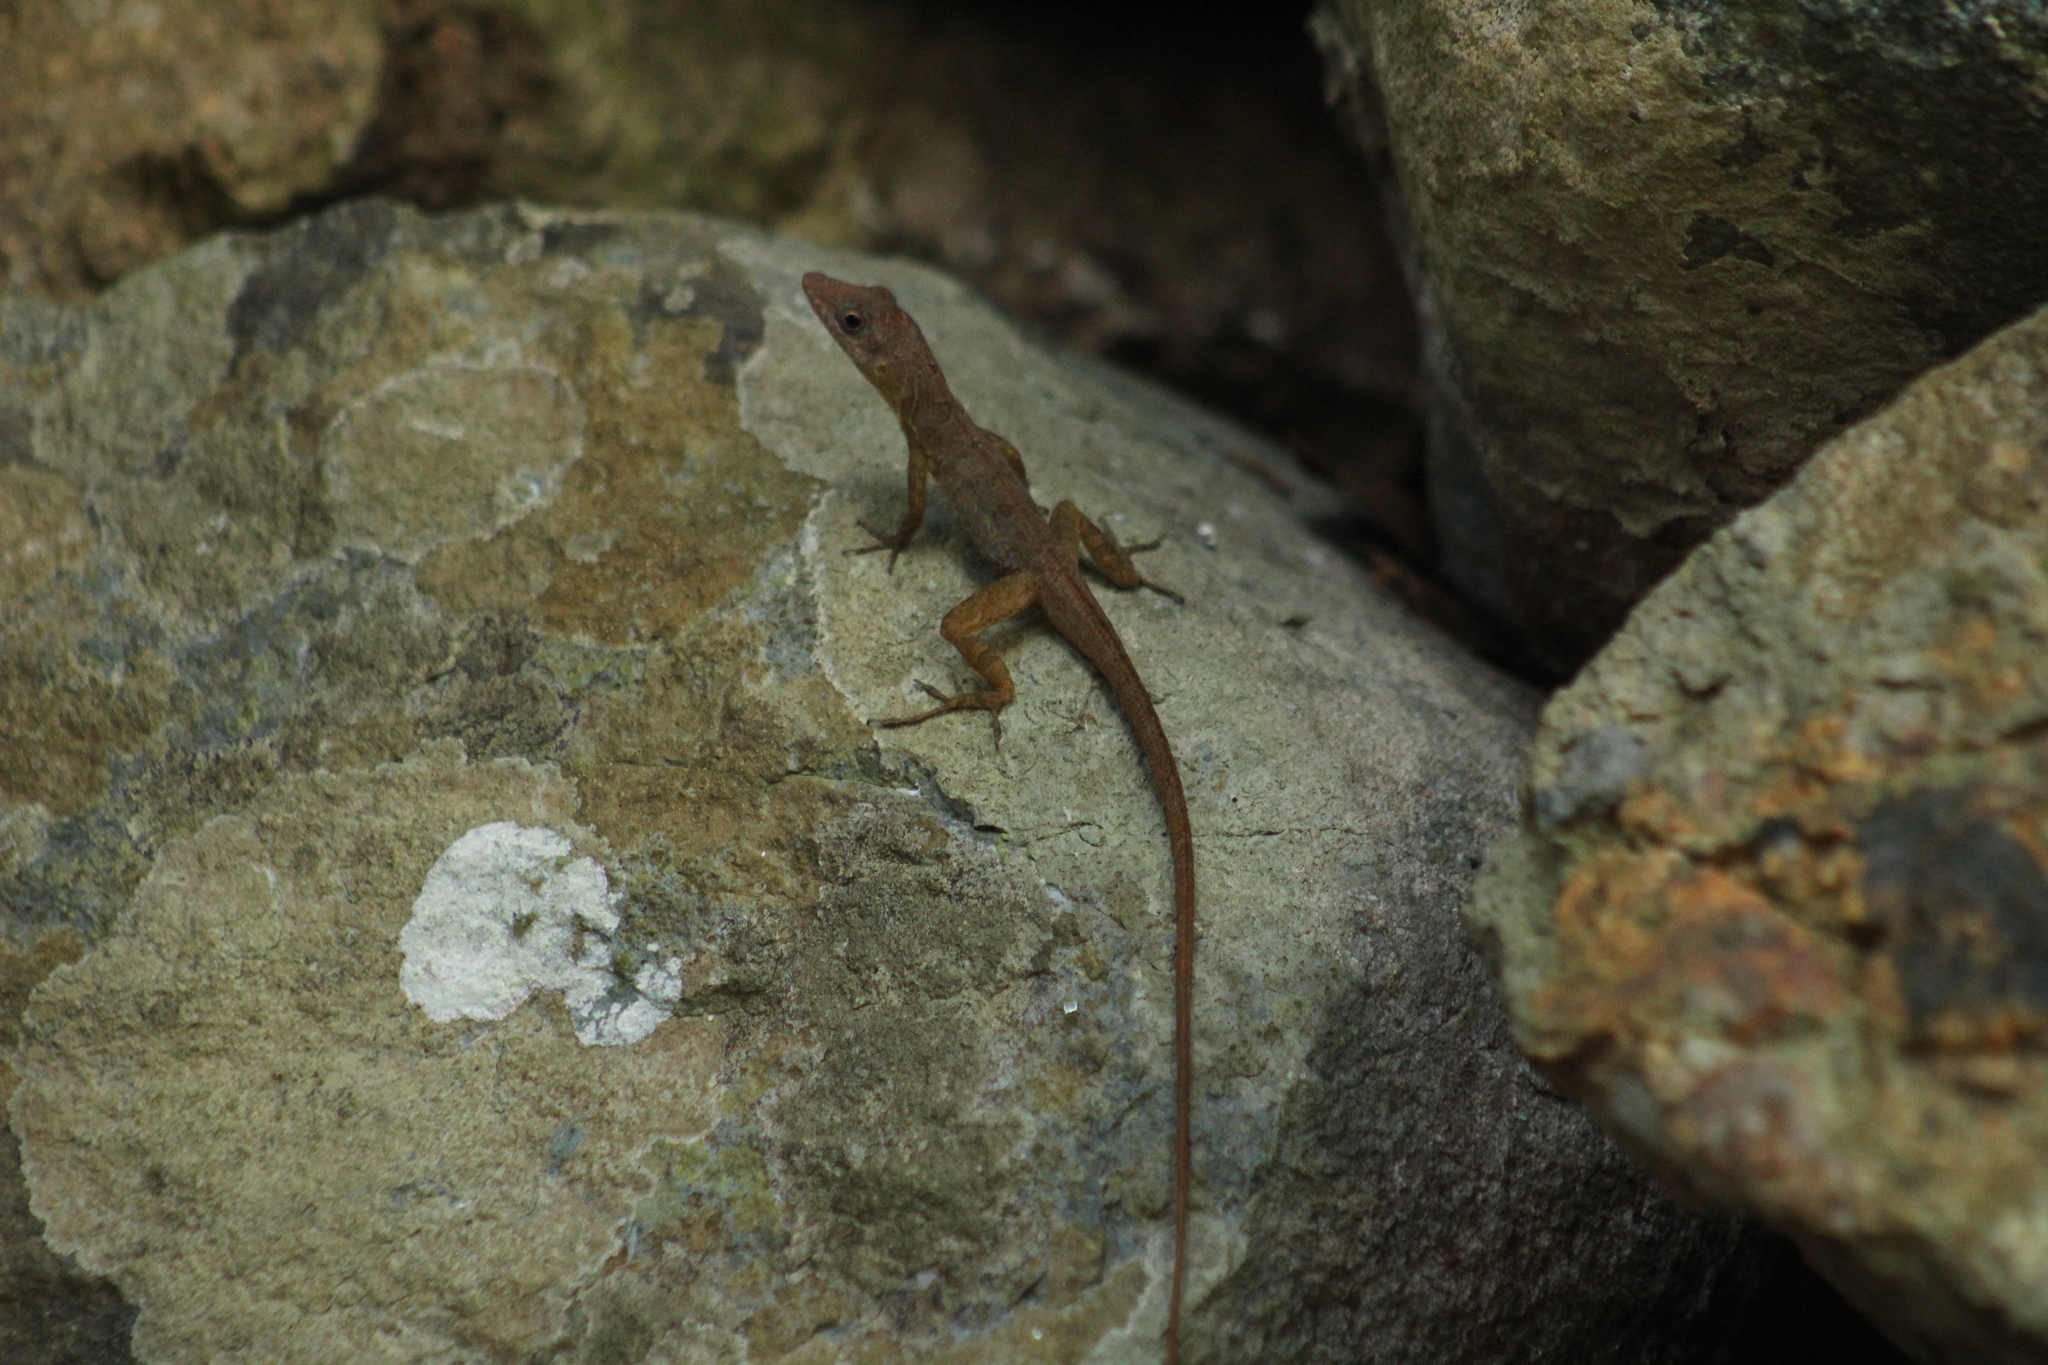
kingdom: Animalia
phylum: Chordata
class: Squamata
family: Dactyloidae
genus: Anolis
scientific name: Anolis pogus
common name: Anguilla bank bush anole
